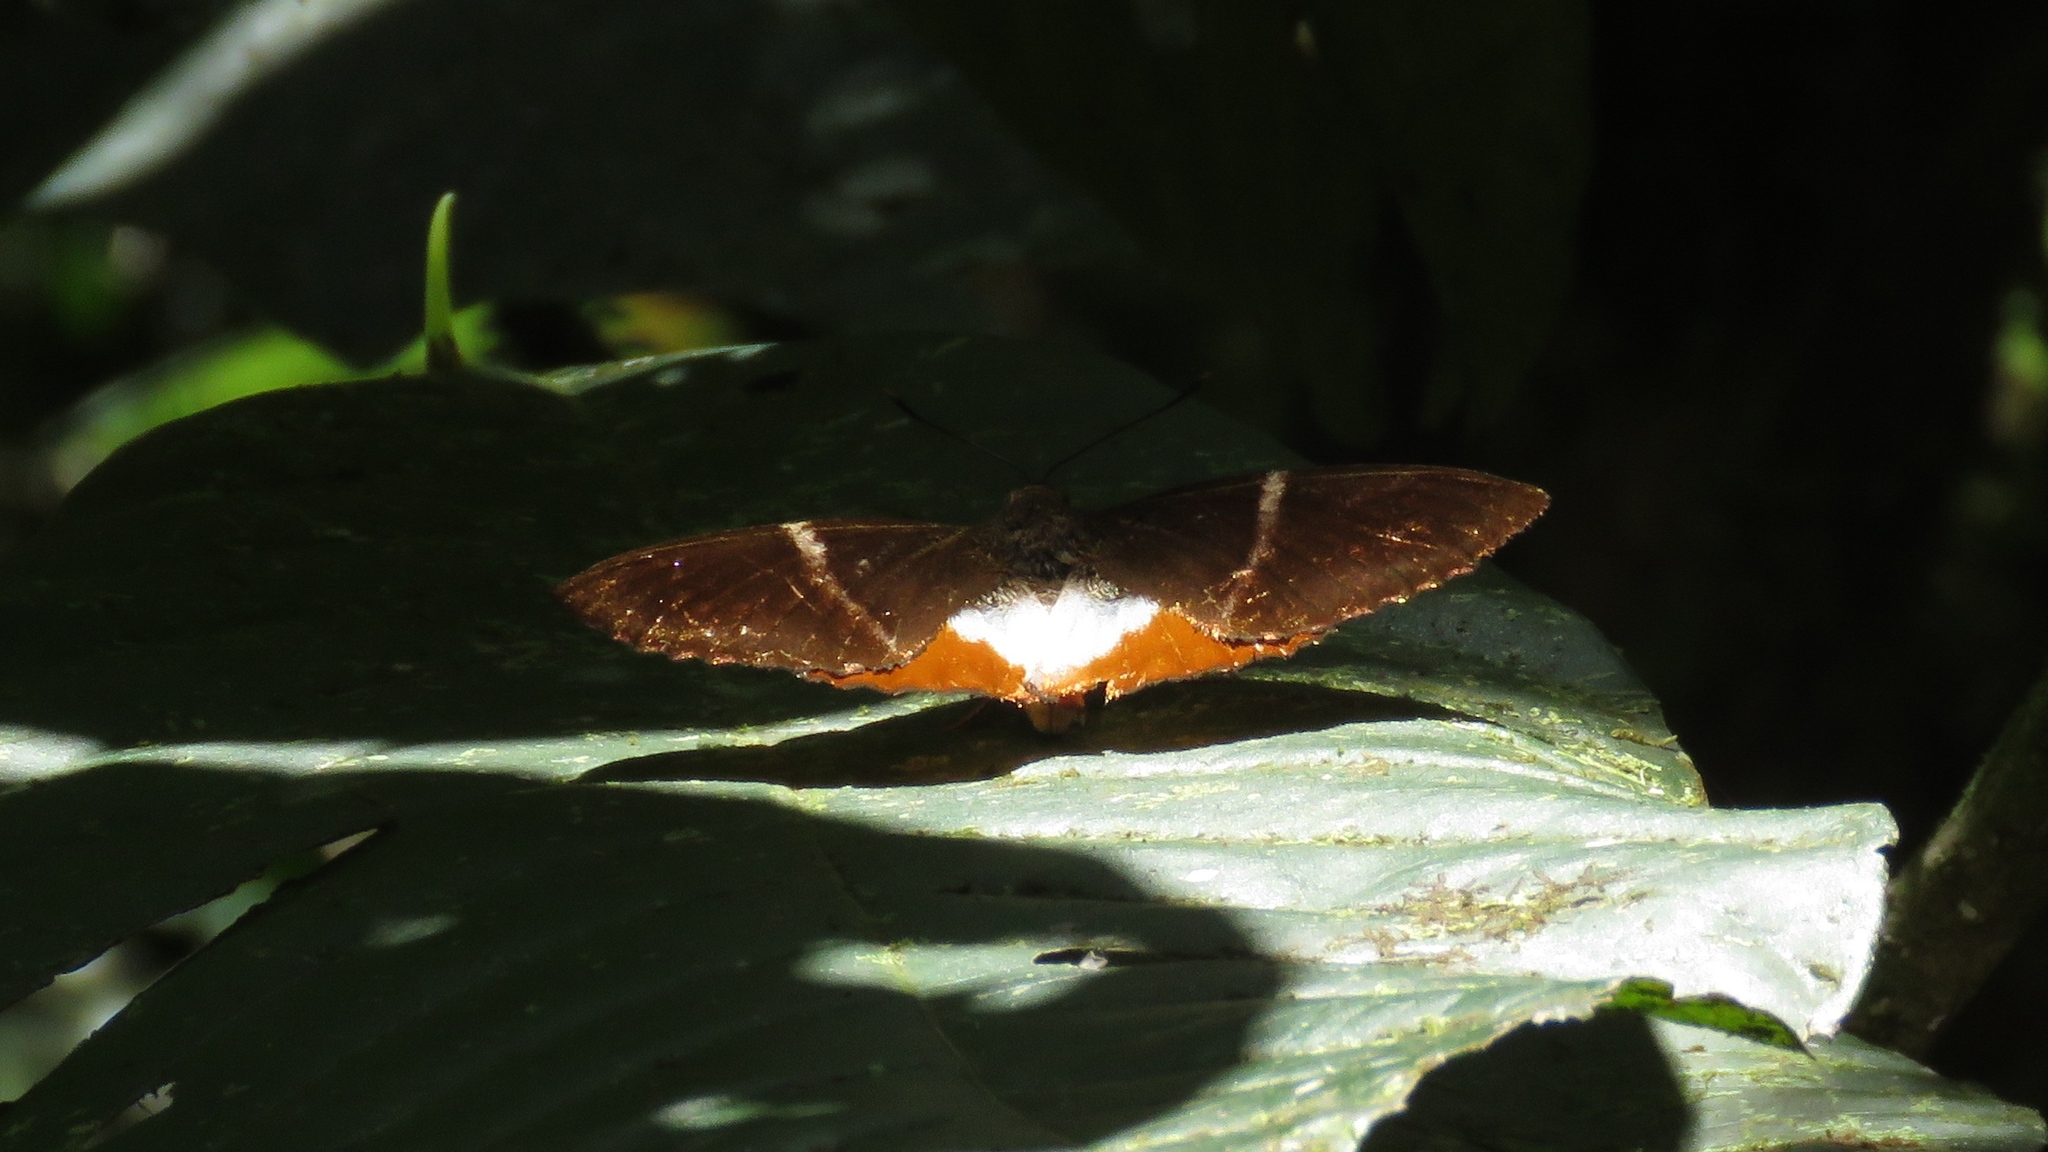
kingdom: Animalia
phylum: Arthropoda
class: Insecta
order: Lepidoptera
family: Castniidae
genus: Castniomera
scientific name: Castniomera drucei
